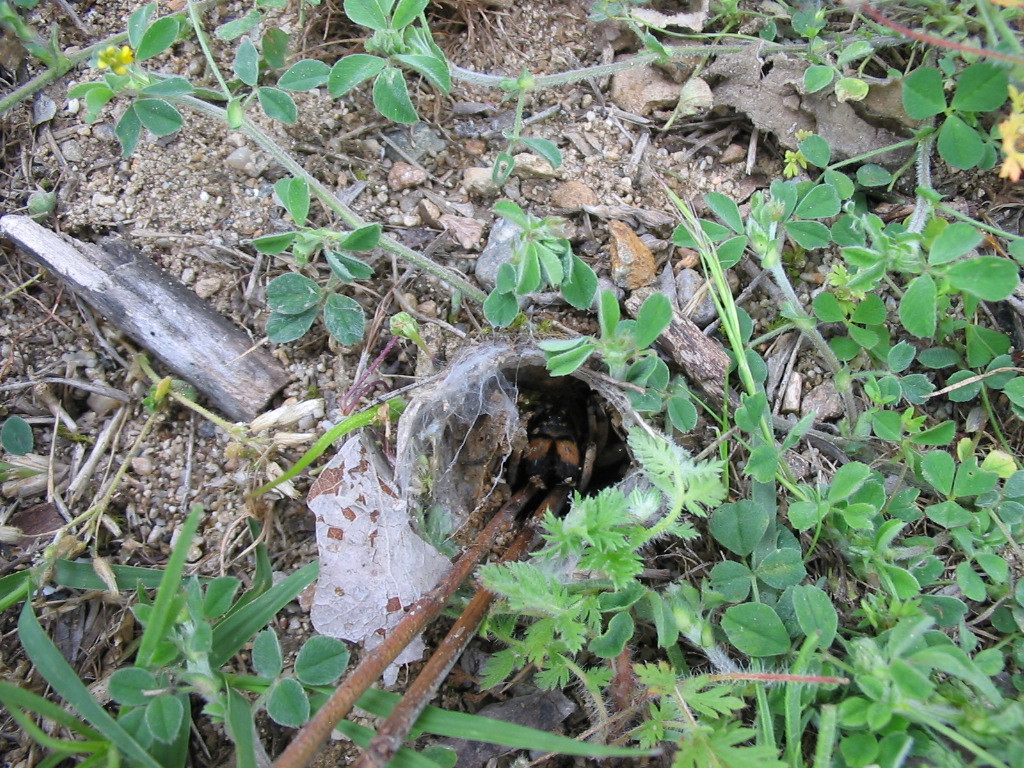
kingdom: Animalia
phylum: Arthropoda
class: Arachnida
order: Araneae
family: Lycosidae
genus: Geolycosa
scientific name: Geolycosa vultuosa
